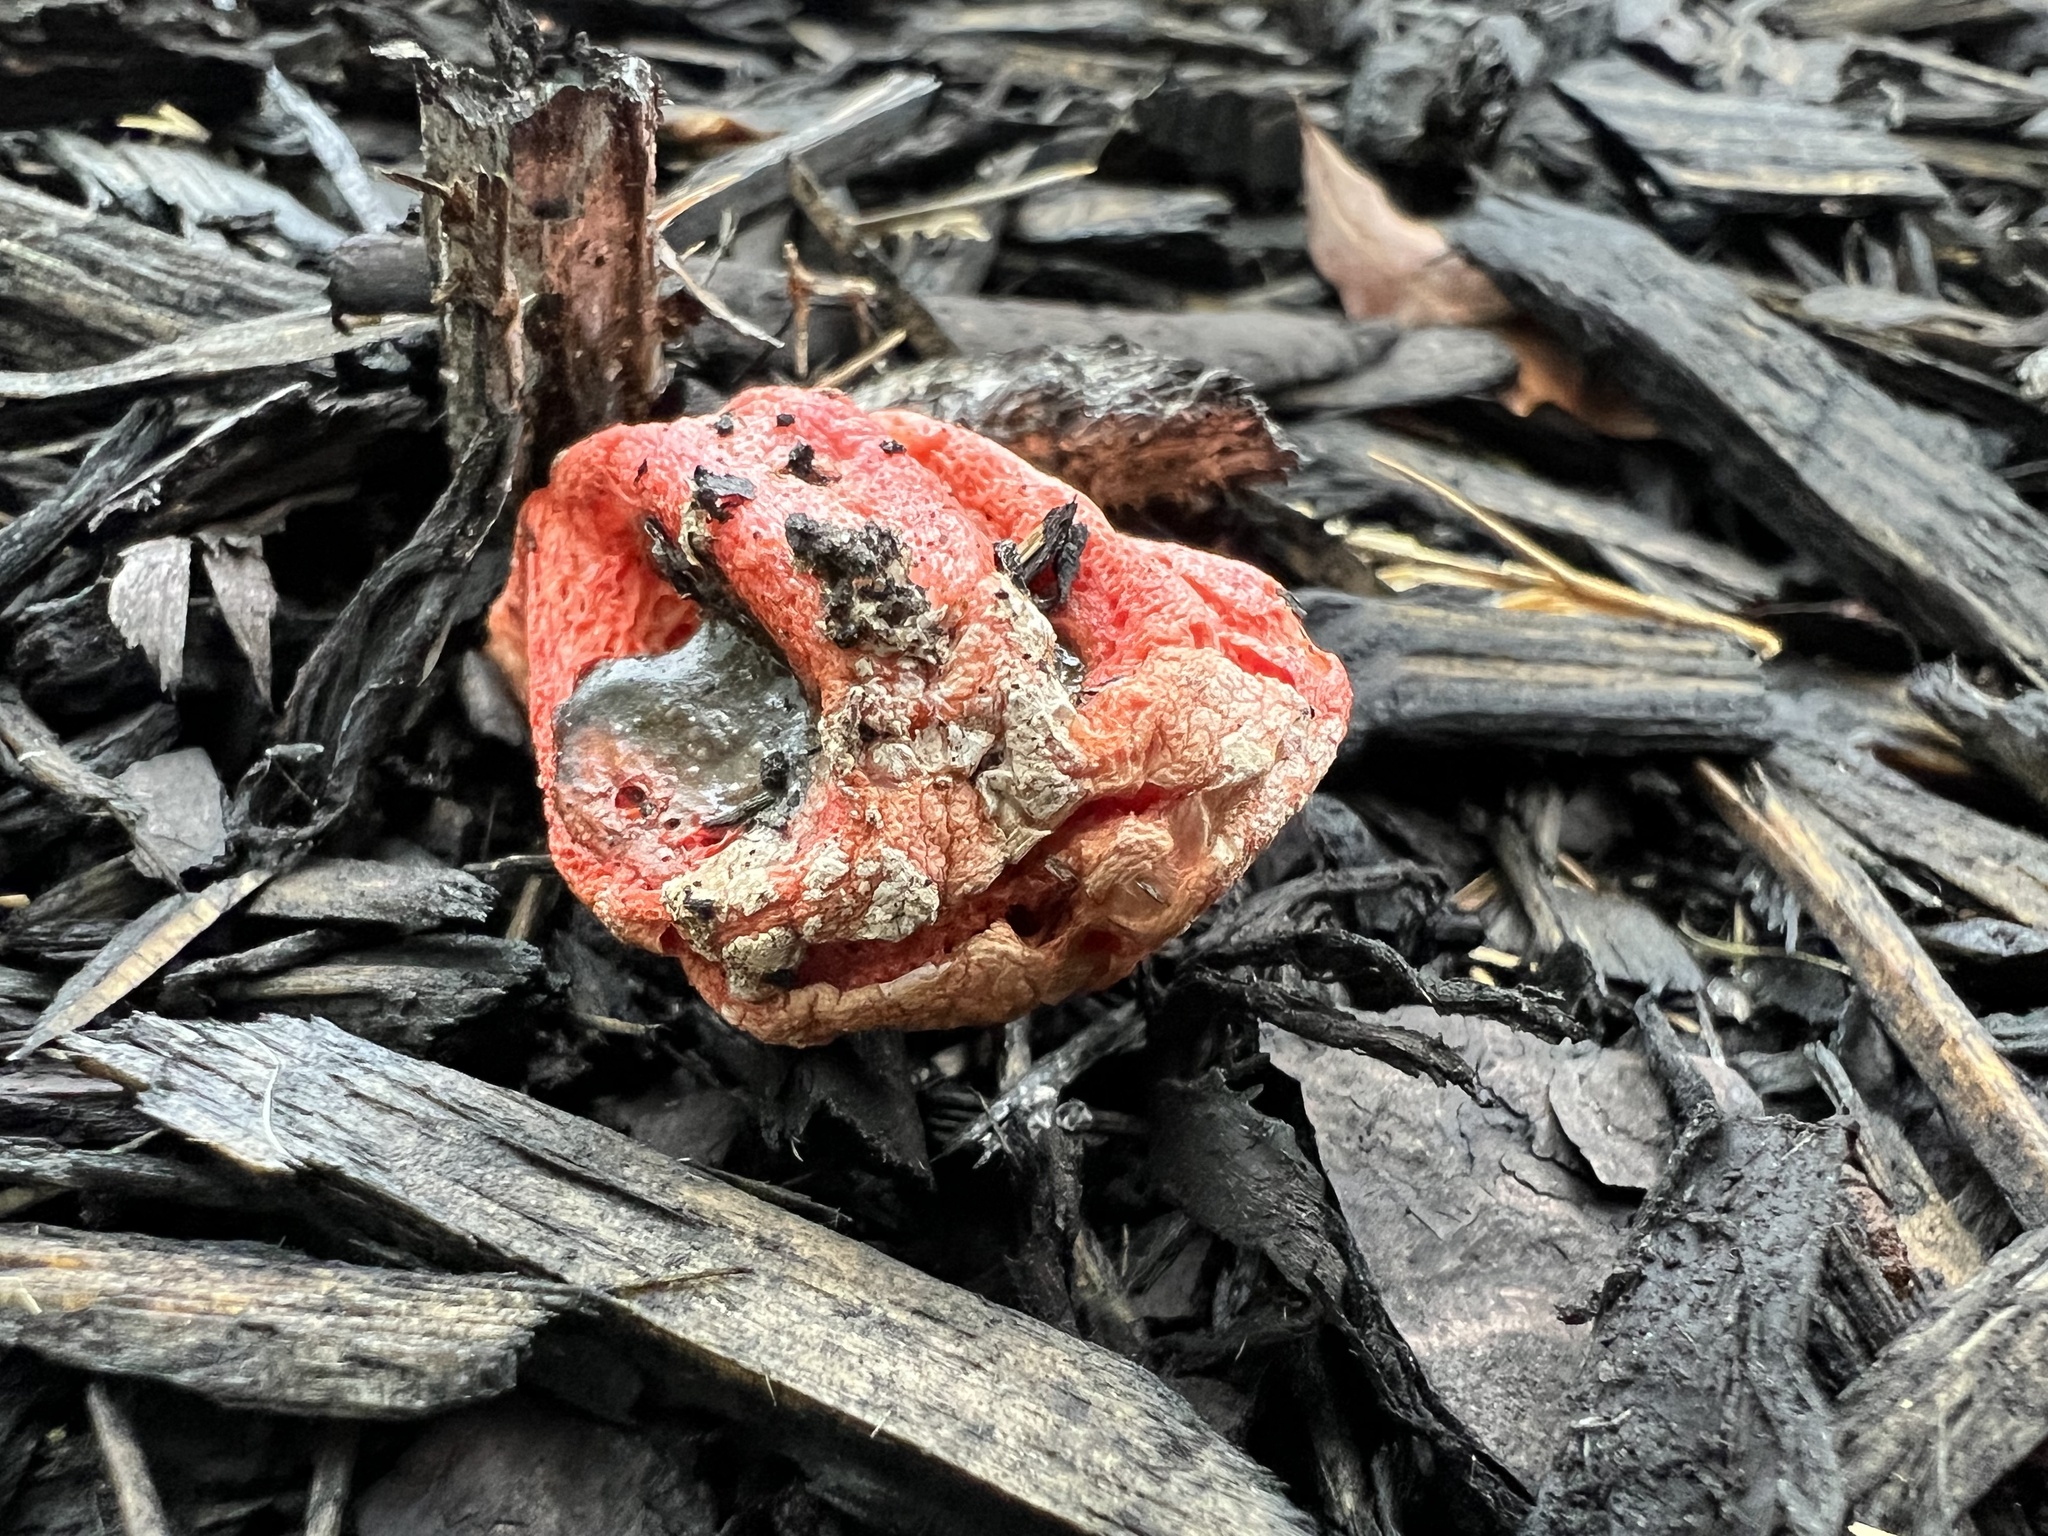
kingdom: Fungi
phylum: Basidiomycota
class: Agaricomycetes
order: Phallales
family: Phallaceae
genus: Clathrus
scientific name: Clathrus columnatus
